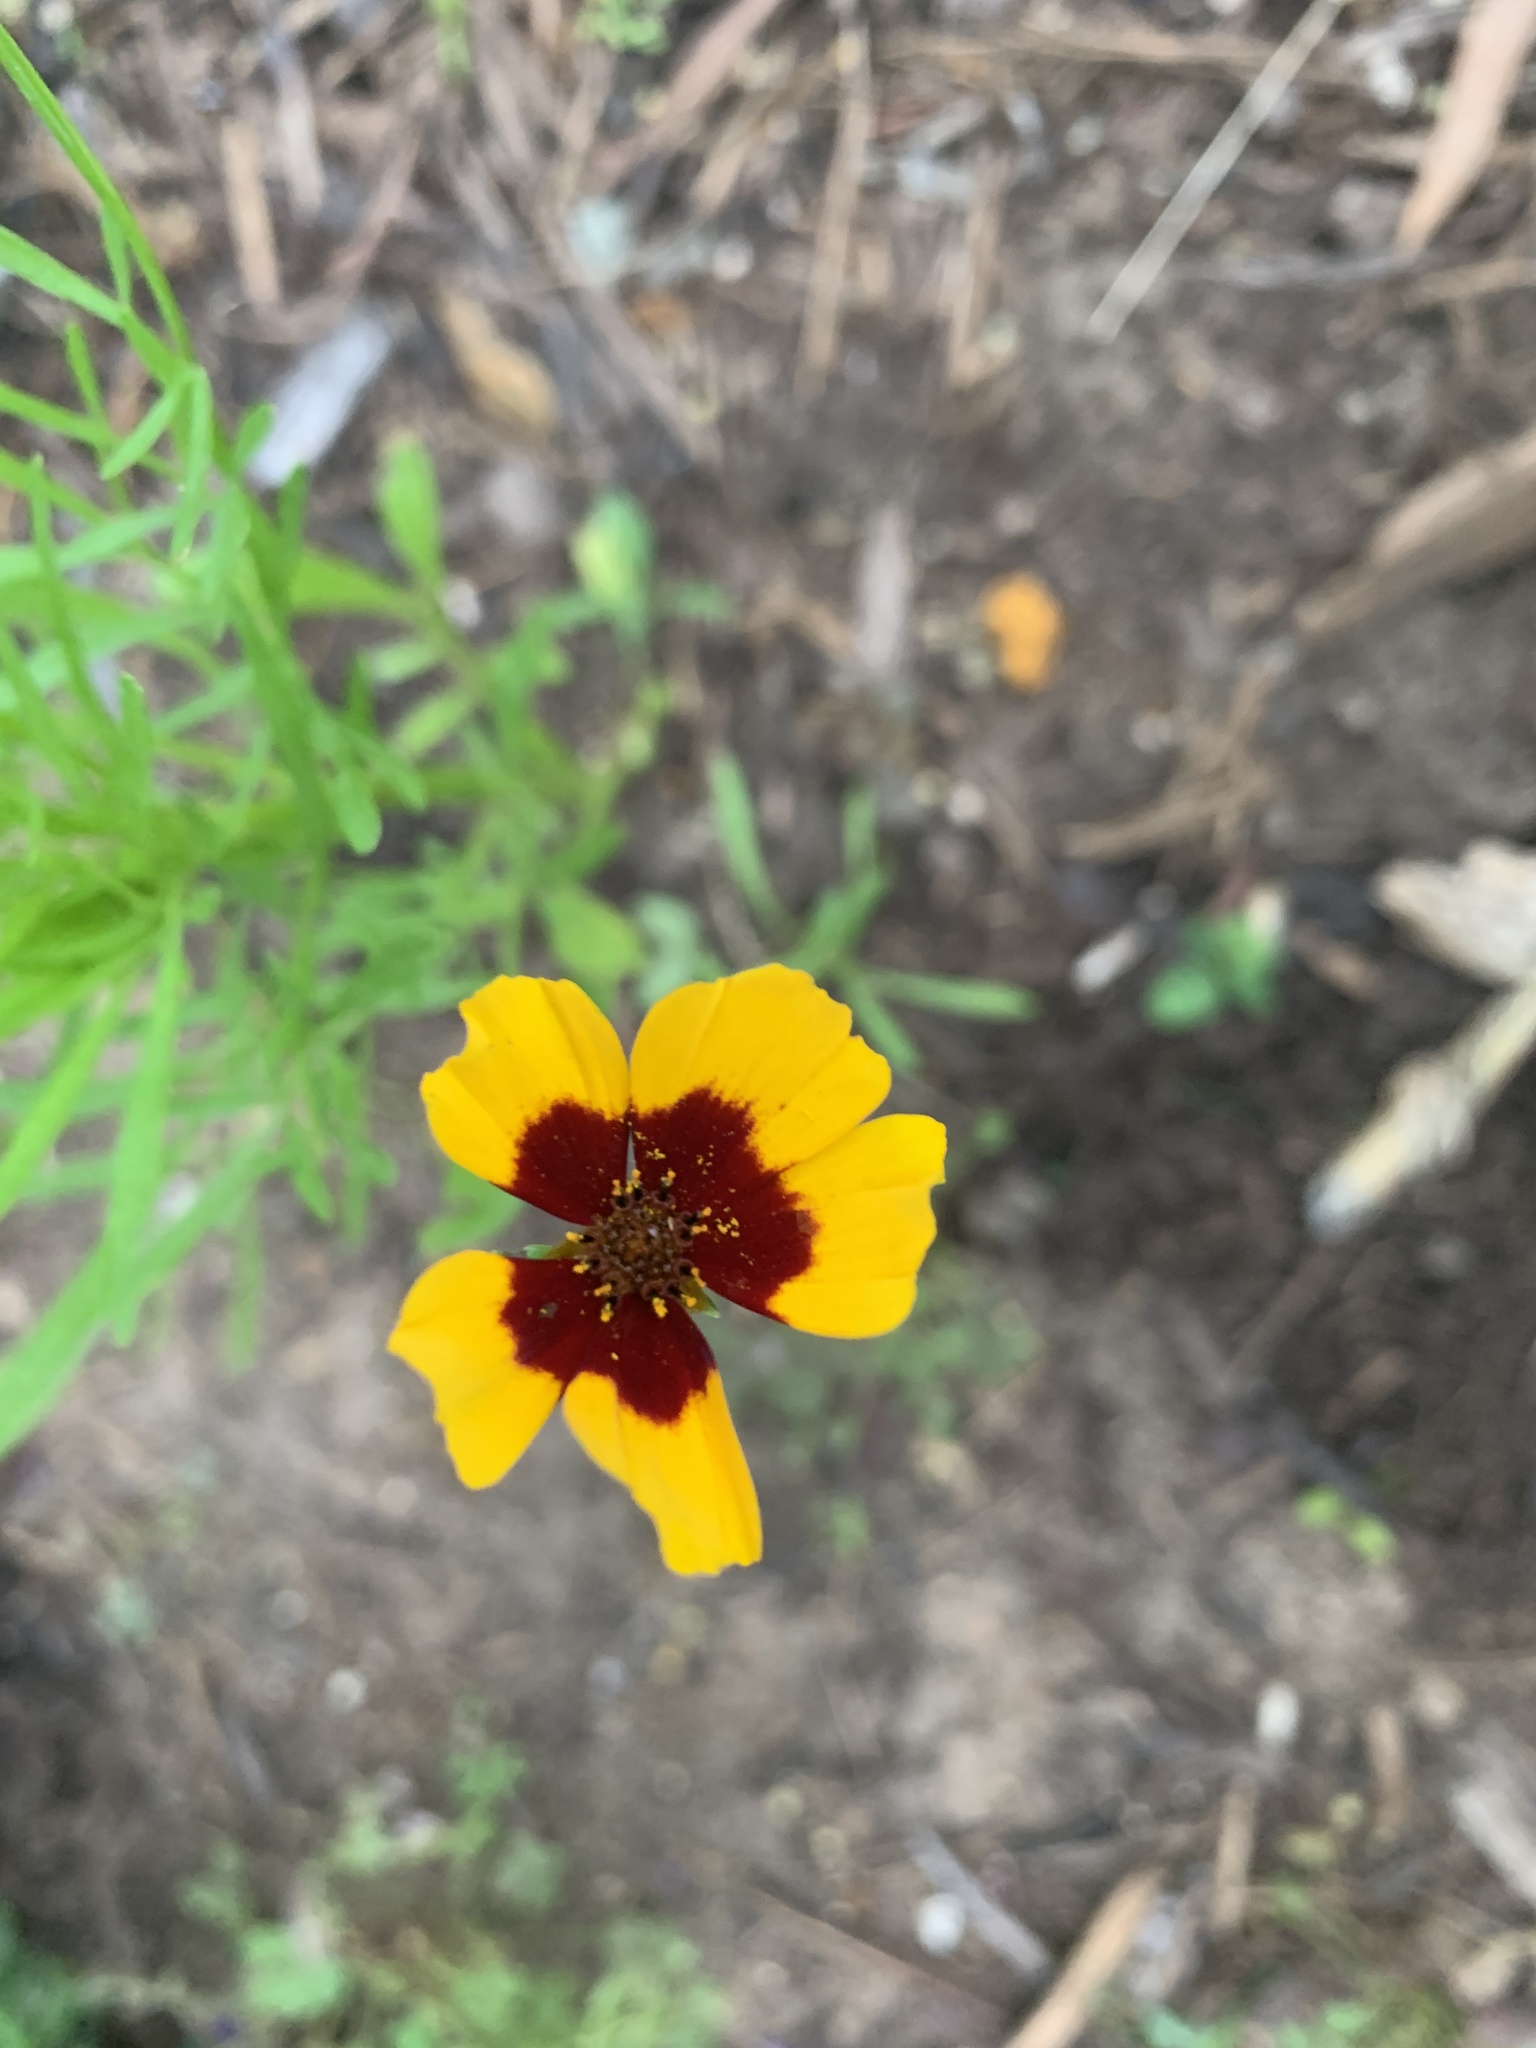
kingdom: Plantae
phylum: Tracheophyta
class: Magnoliopsida
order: Asterales
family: Asteraceae
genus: Coreopsis
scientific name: Coreopsis basalis
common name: Golden-mane coreopsis
